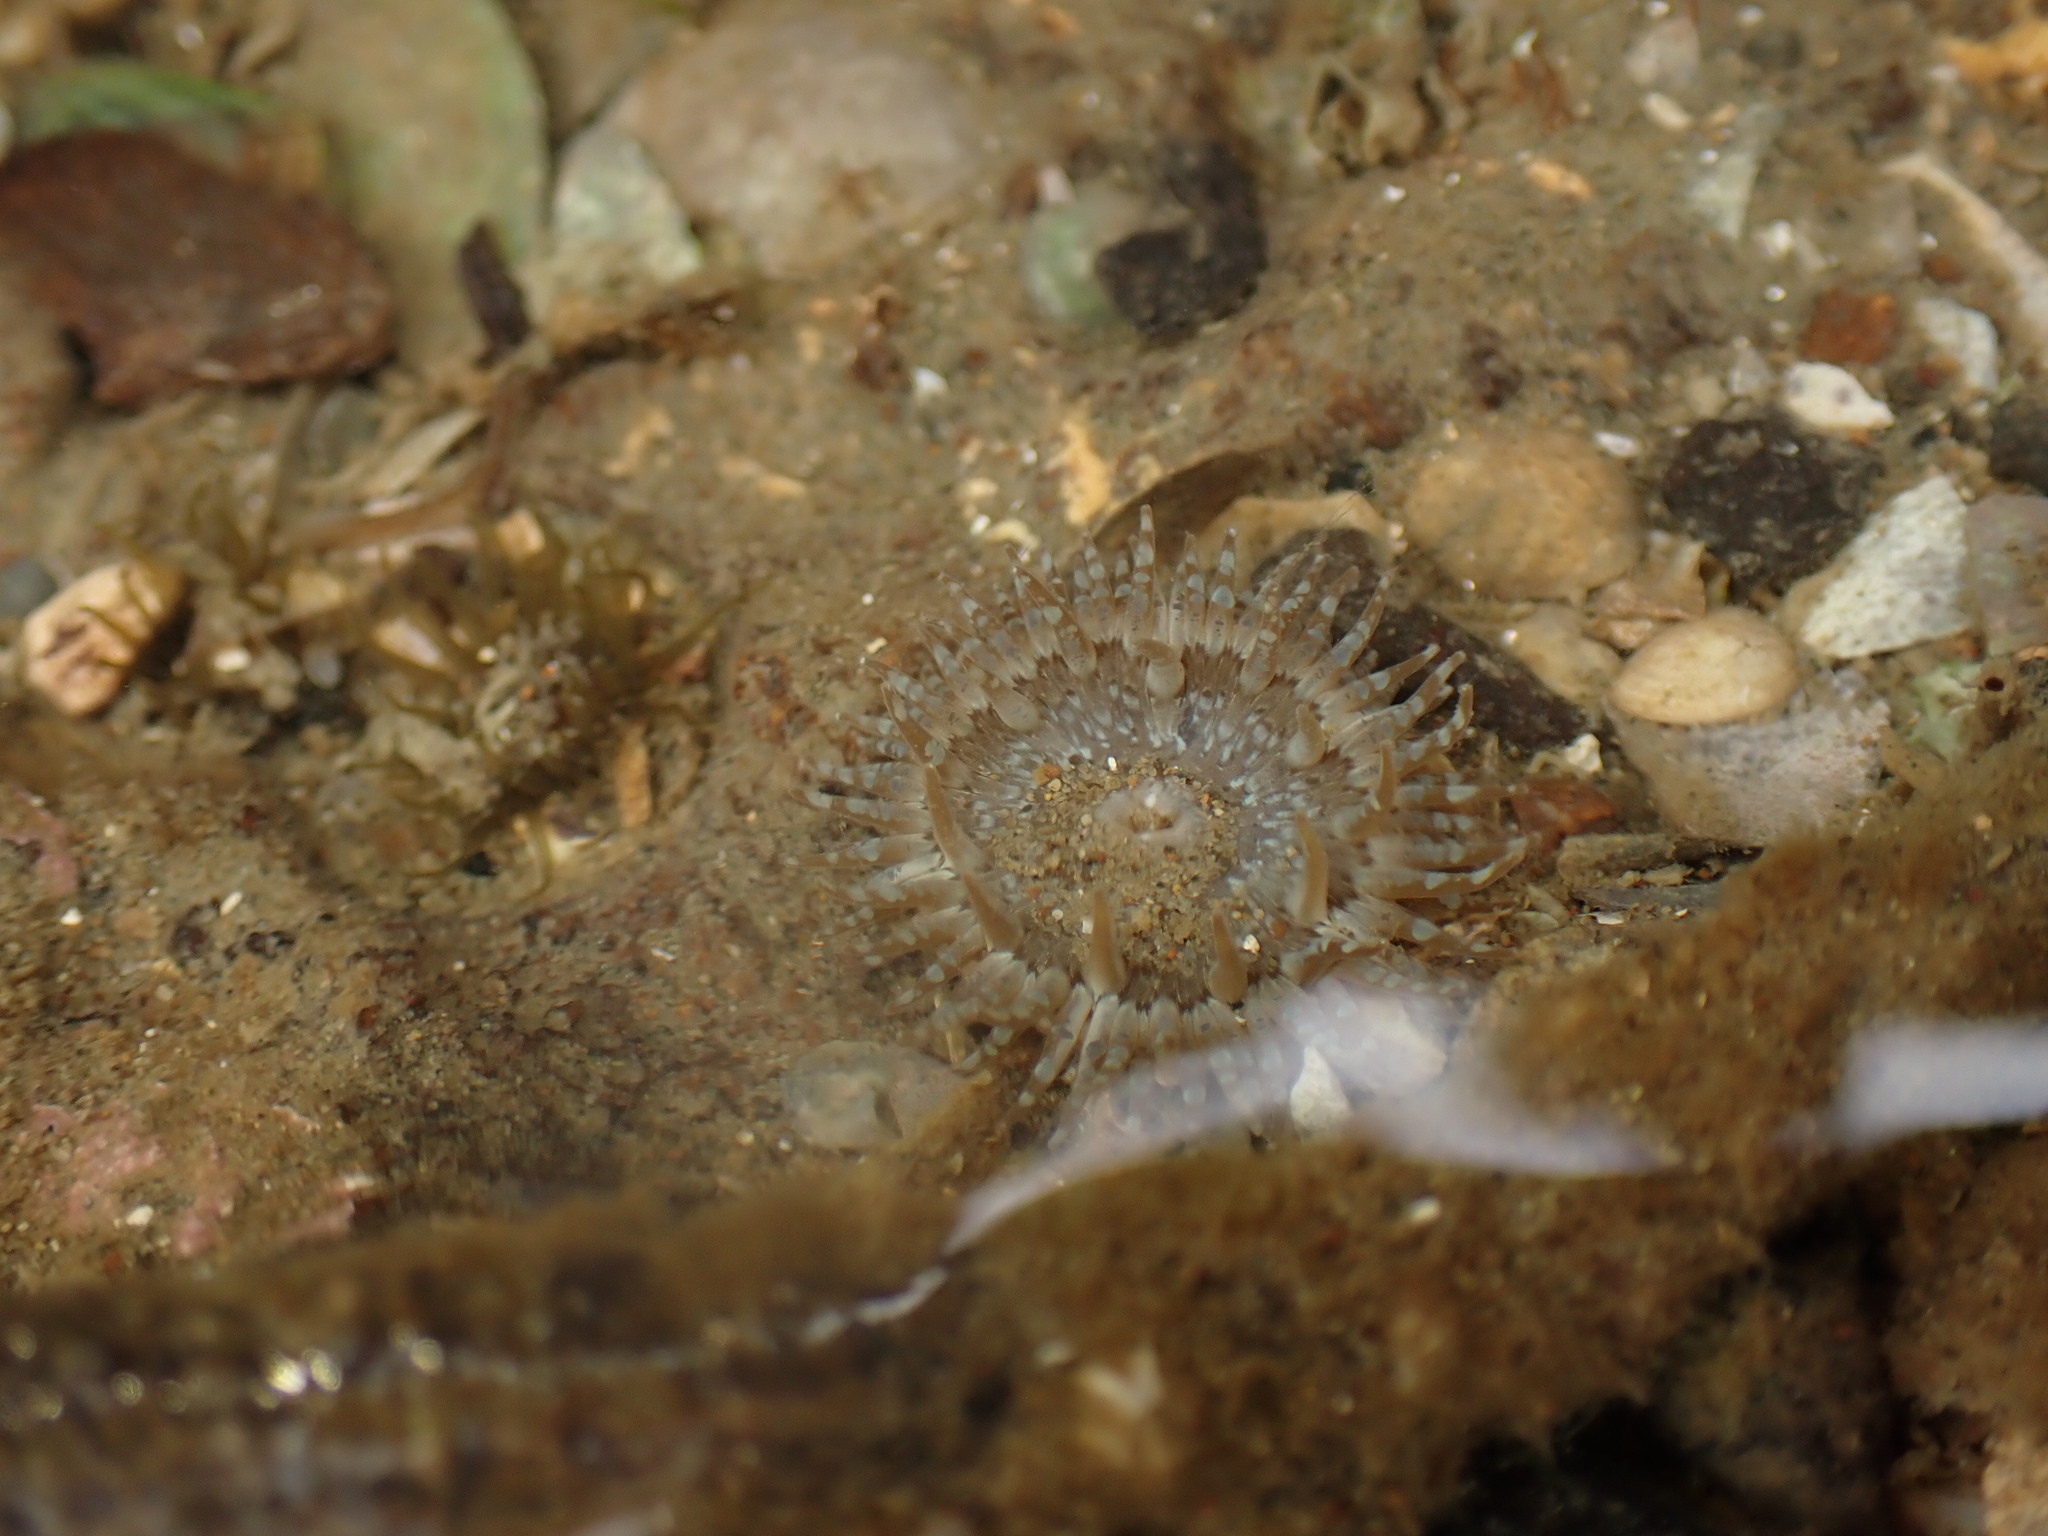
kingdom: Animalia
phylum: Cnidaria
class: Anthozoa
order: Actiniaria
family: Actiniidae
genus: Anthopleura
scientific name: Anthopleura hermaphroditica
